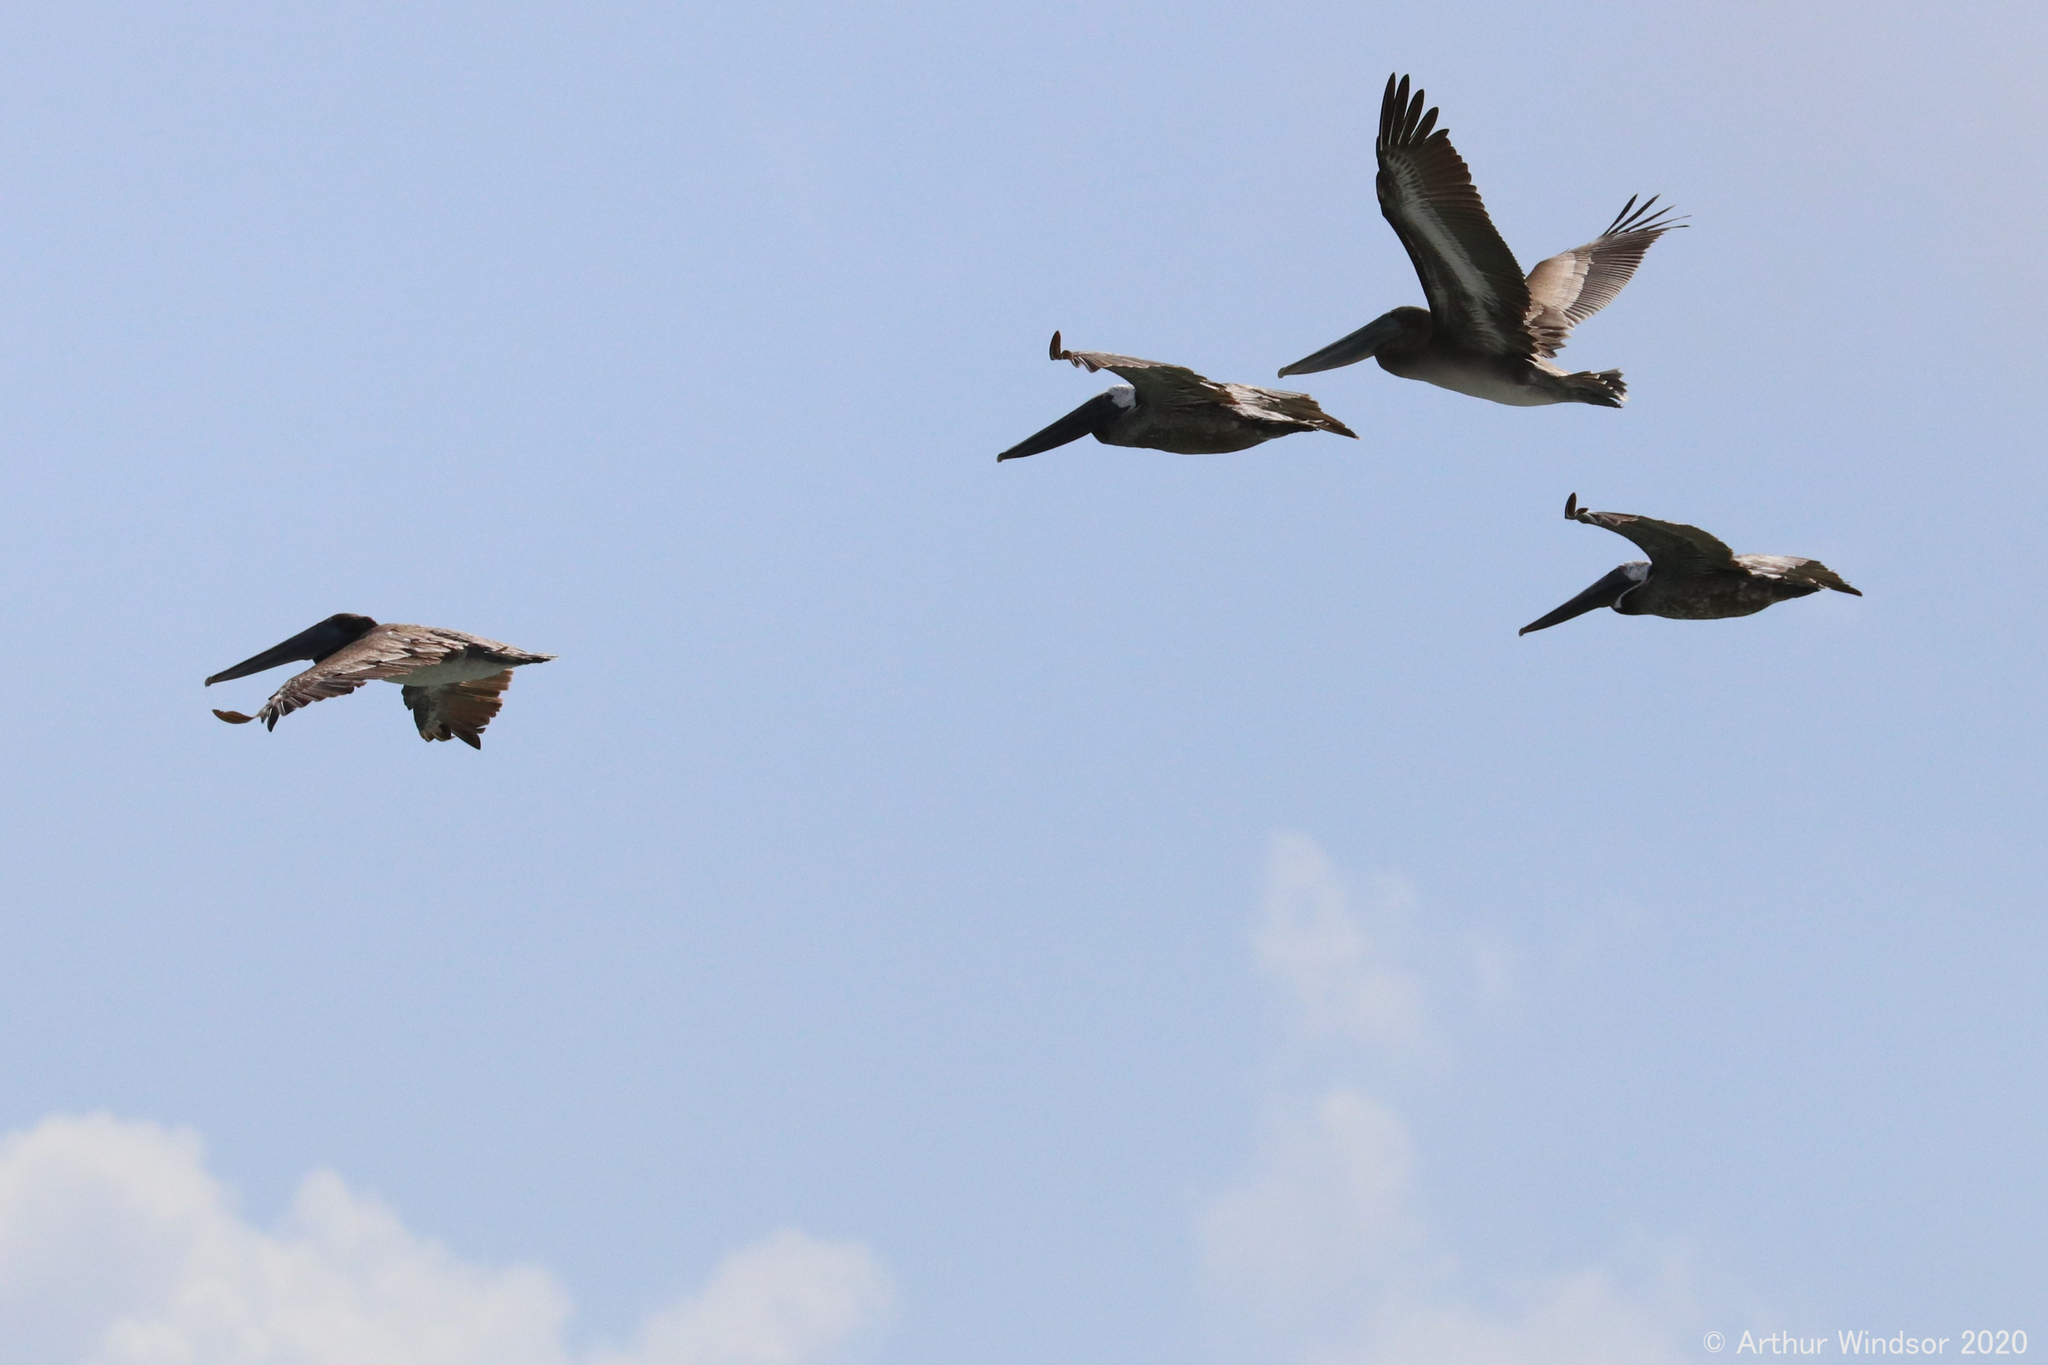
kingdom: Animalia
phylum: Chordata
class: Aves
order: Pelecaniformes
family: Pelecanidae
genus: Pelecanus
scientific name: Pelecanus occidentalis
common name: Brown pelican
